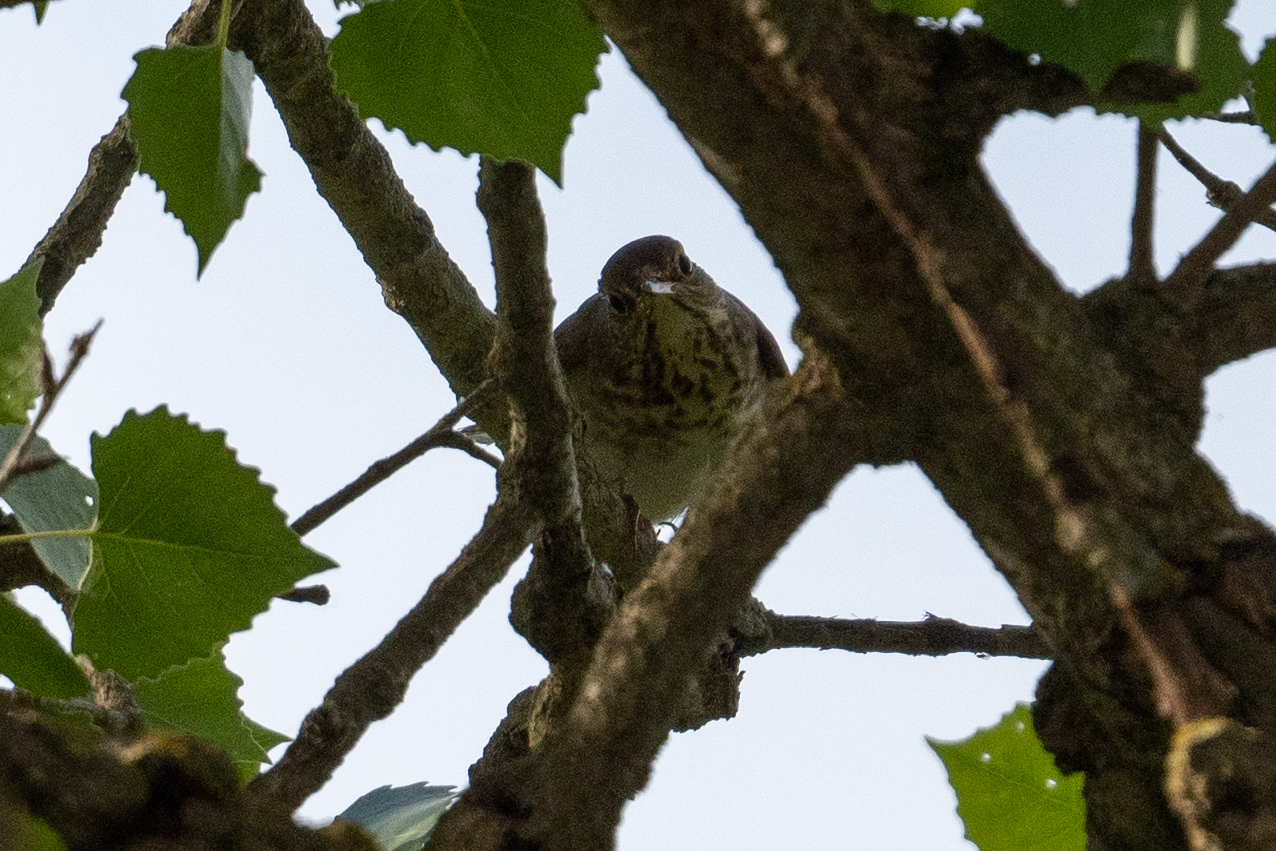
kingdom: Animalia
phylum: Chordata
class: Aves
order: Passeriformes
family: Turdidae
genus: Catharus
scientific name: Catharus ustulatus
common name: Swainson's thrush
